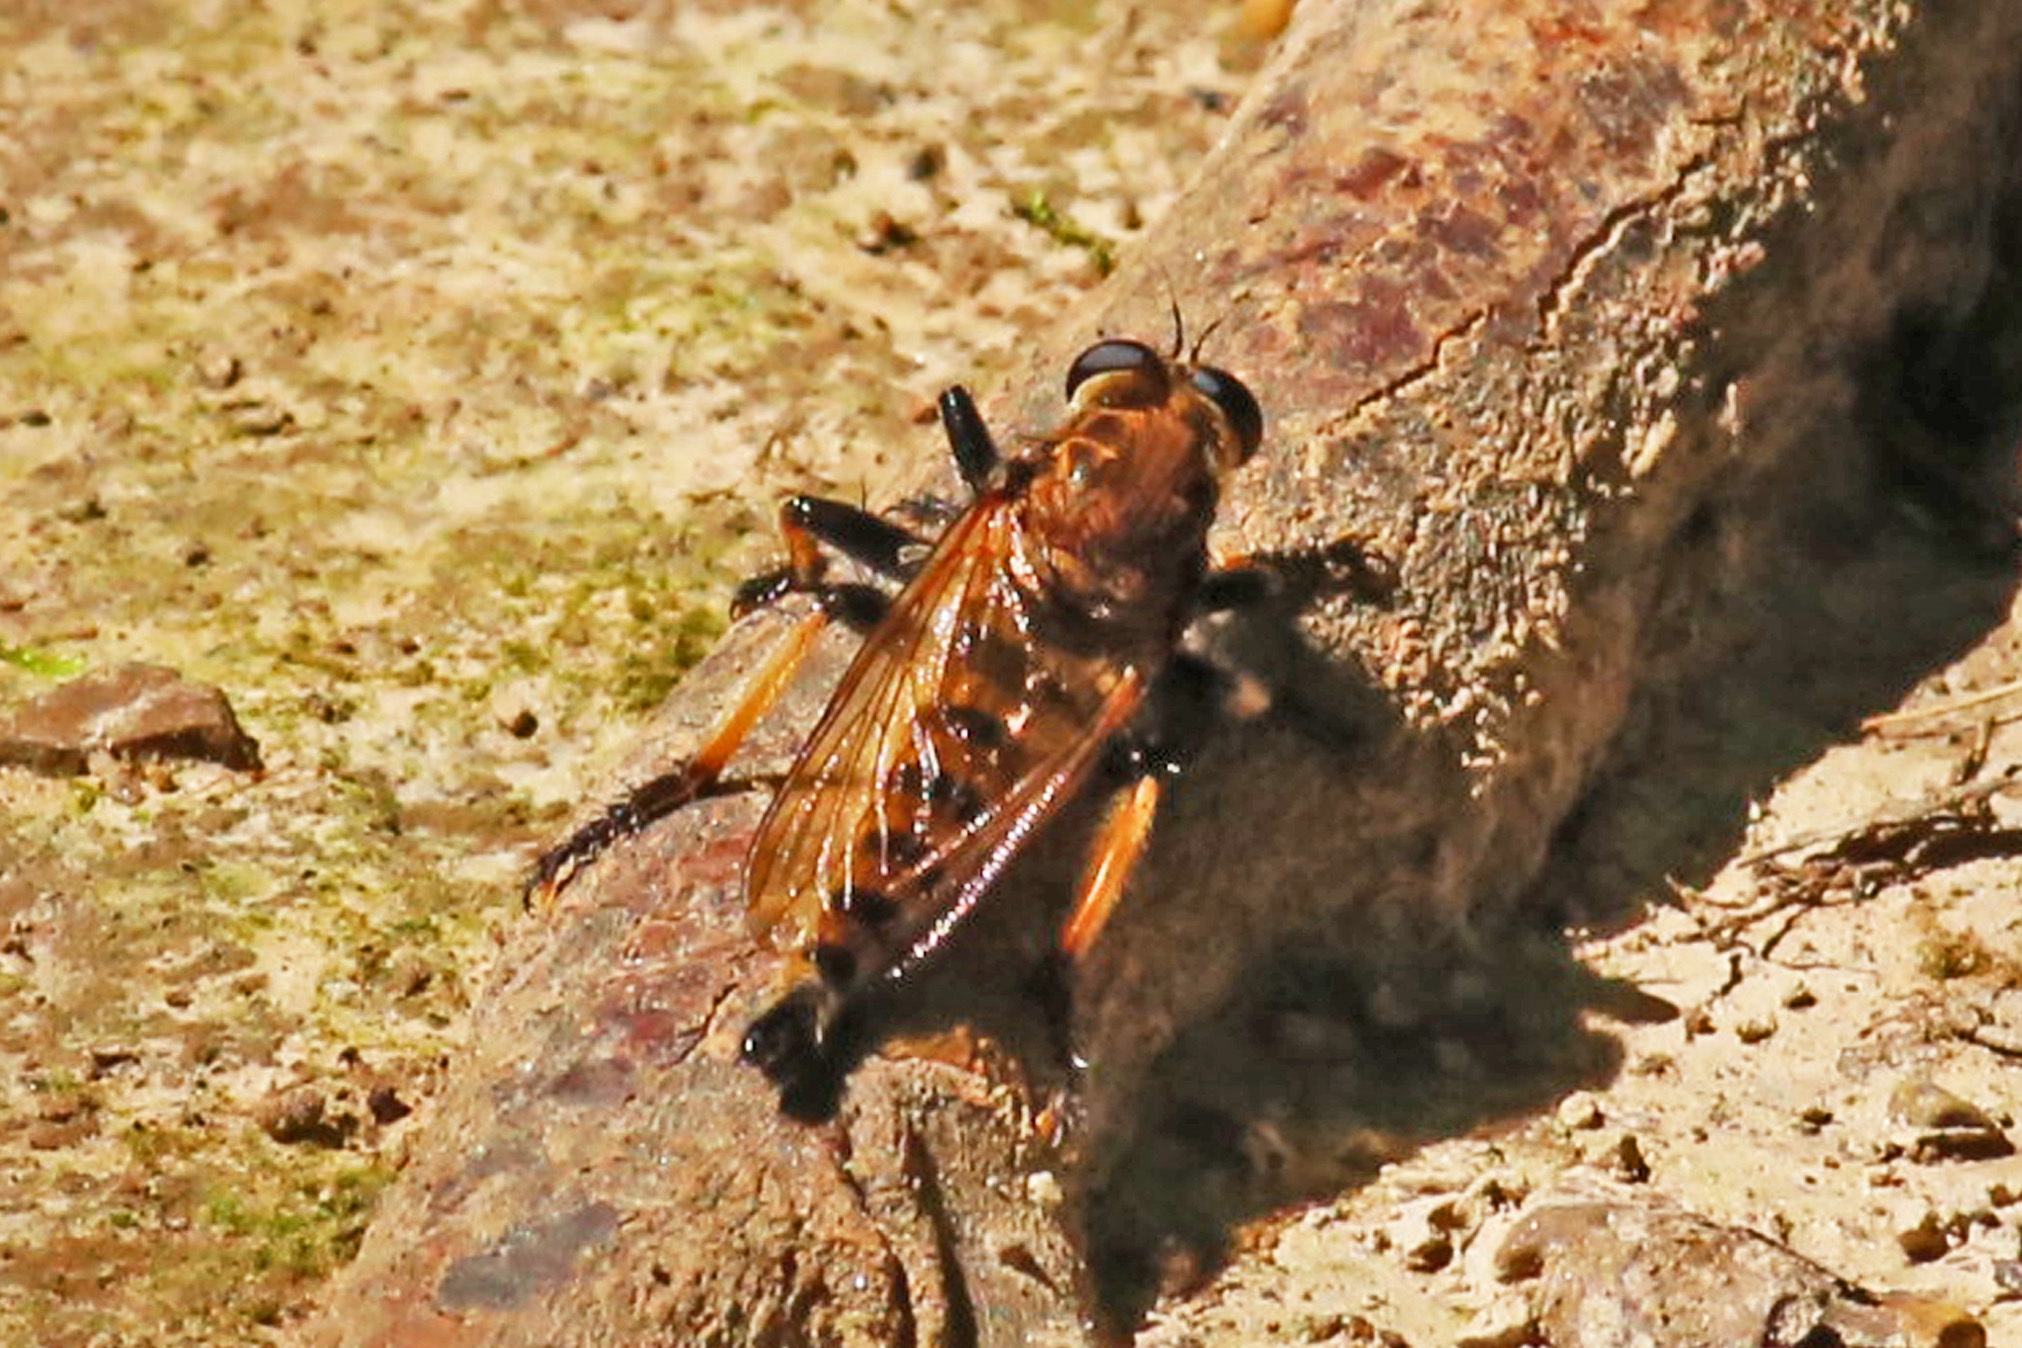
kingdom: Animalia
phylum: Arthropoda
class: Insecta
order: Diptera
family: Asilidae
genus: Promachus
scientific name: Promachus rufipes
